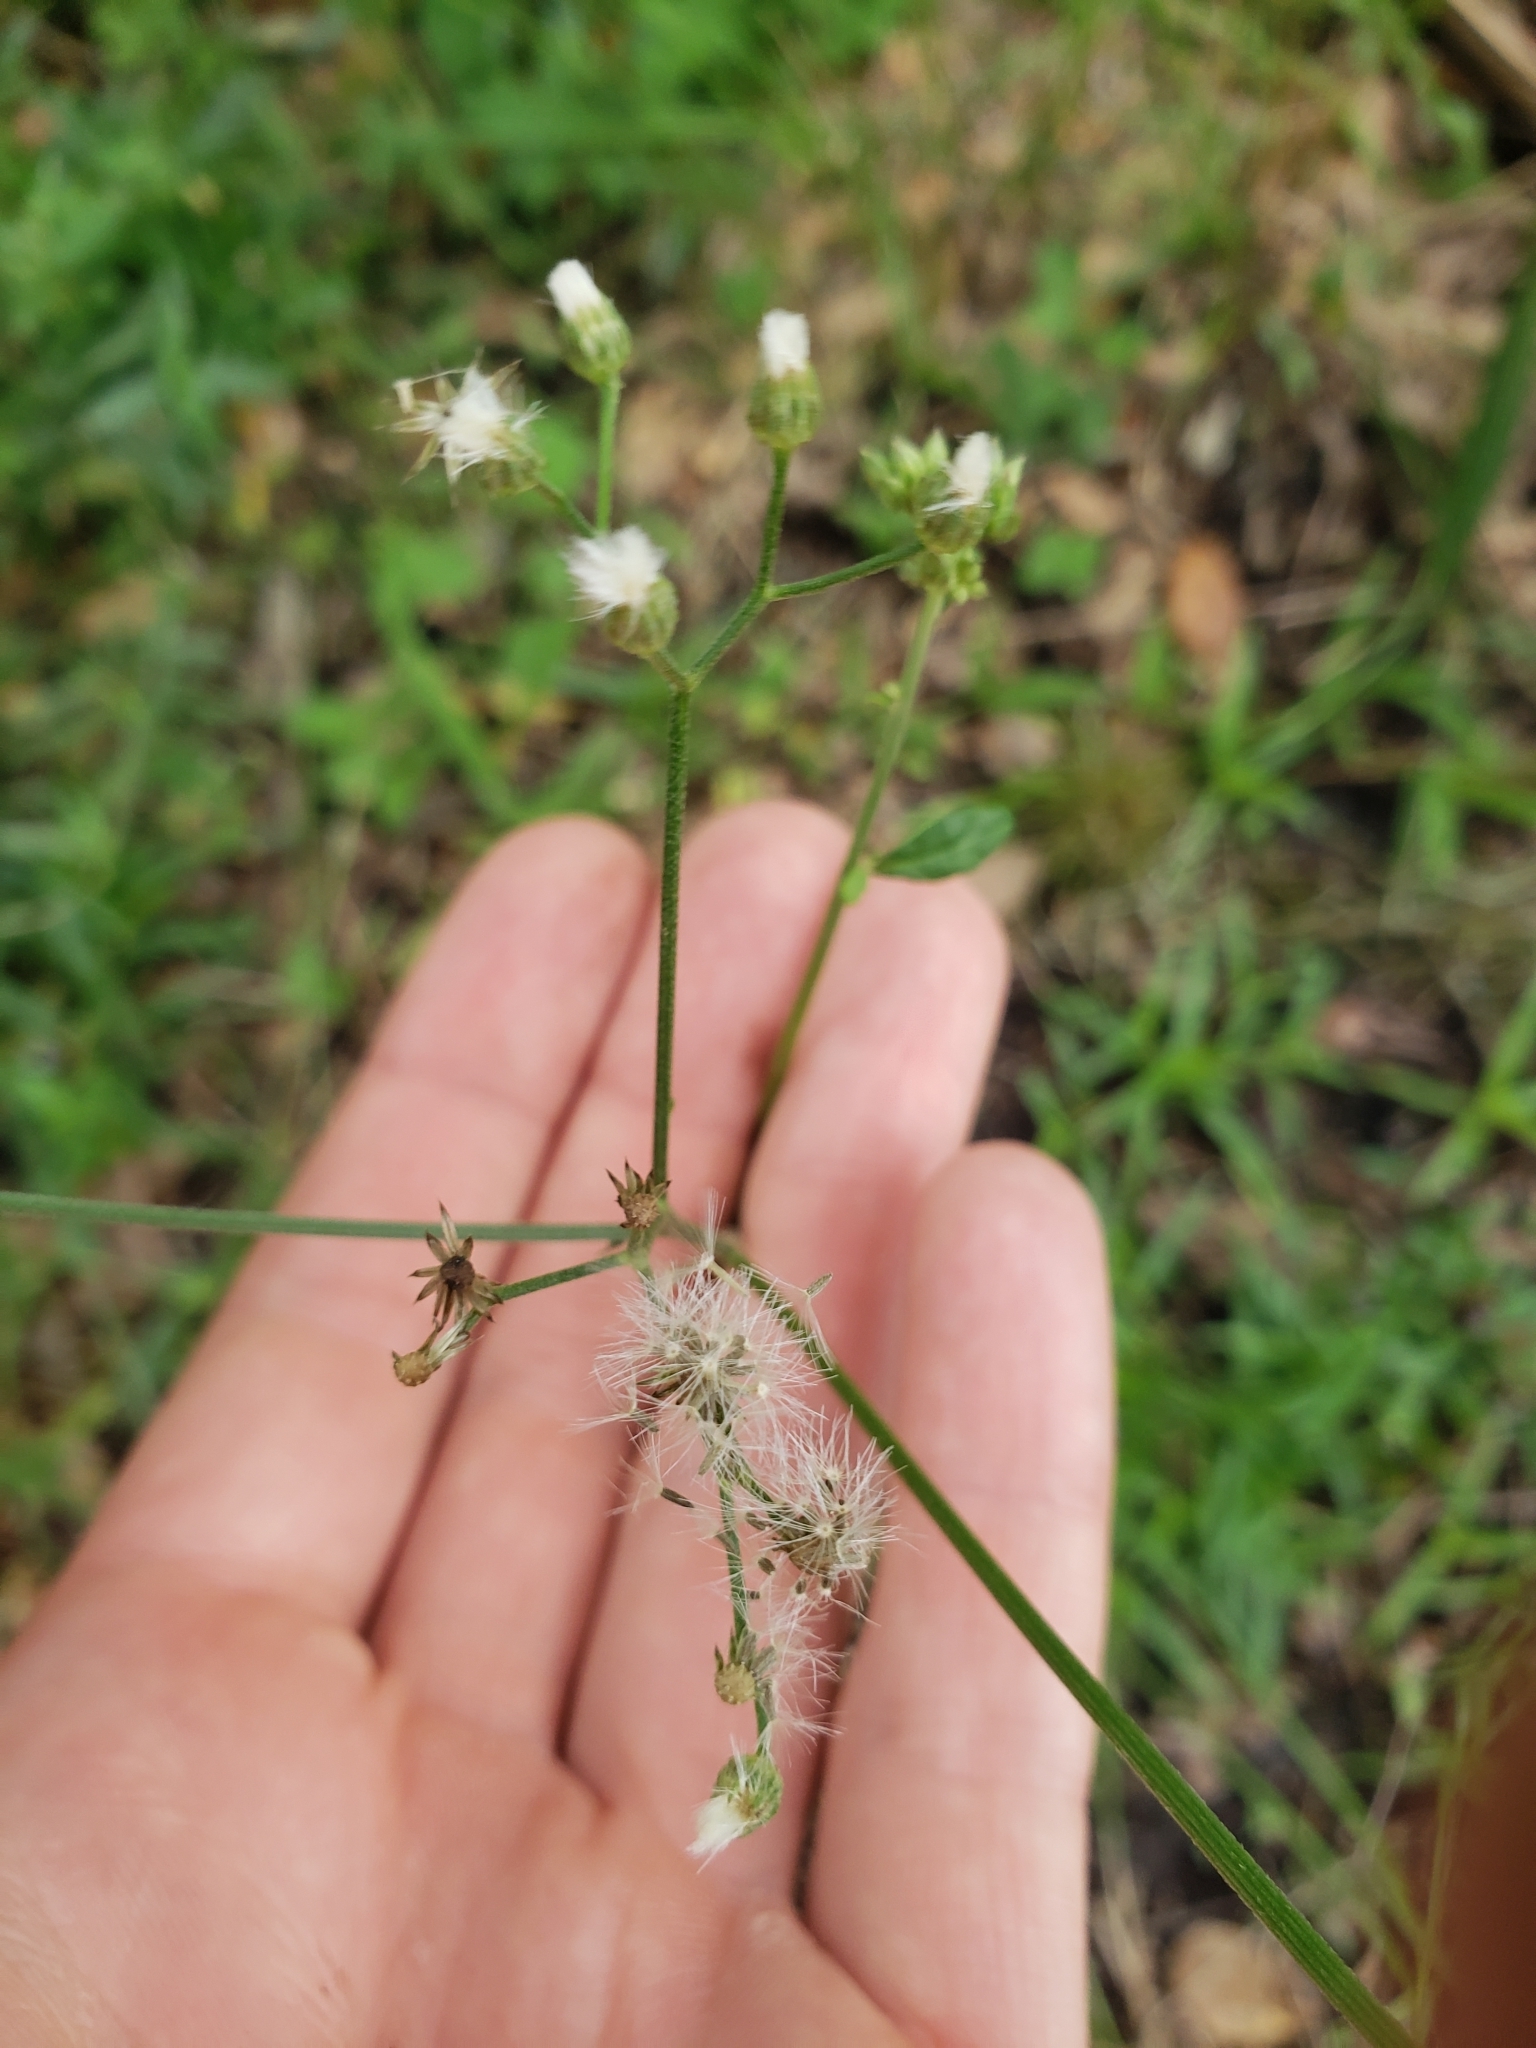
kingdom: Plantae
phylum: Tracheophyta
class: Magnoliopsida
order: Asterales
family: Asteraceae
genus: Cyanthillium
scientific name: Cyanthillium cinereum
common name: Little ironweed
